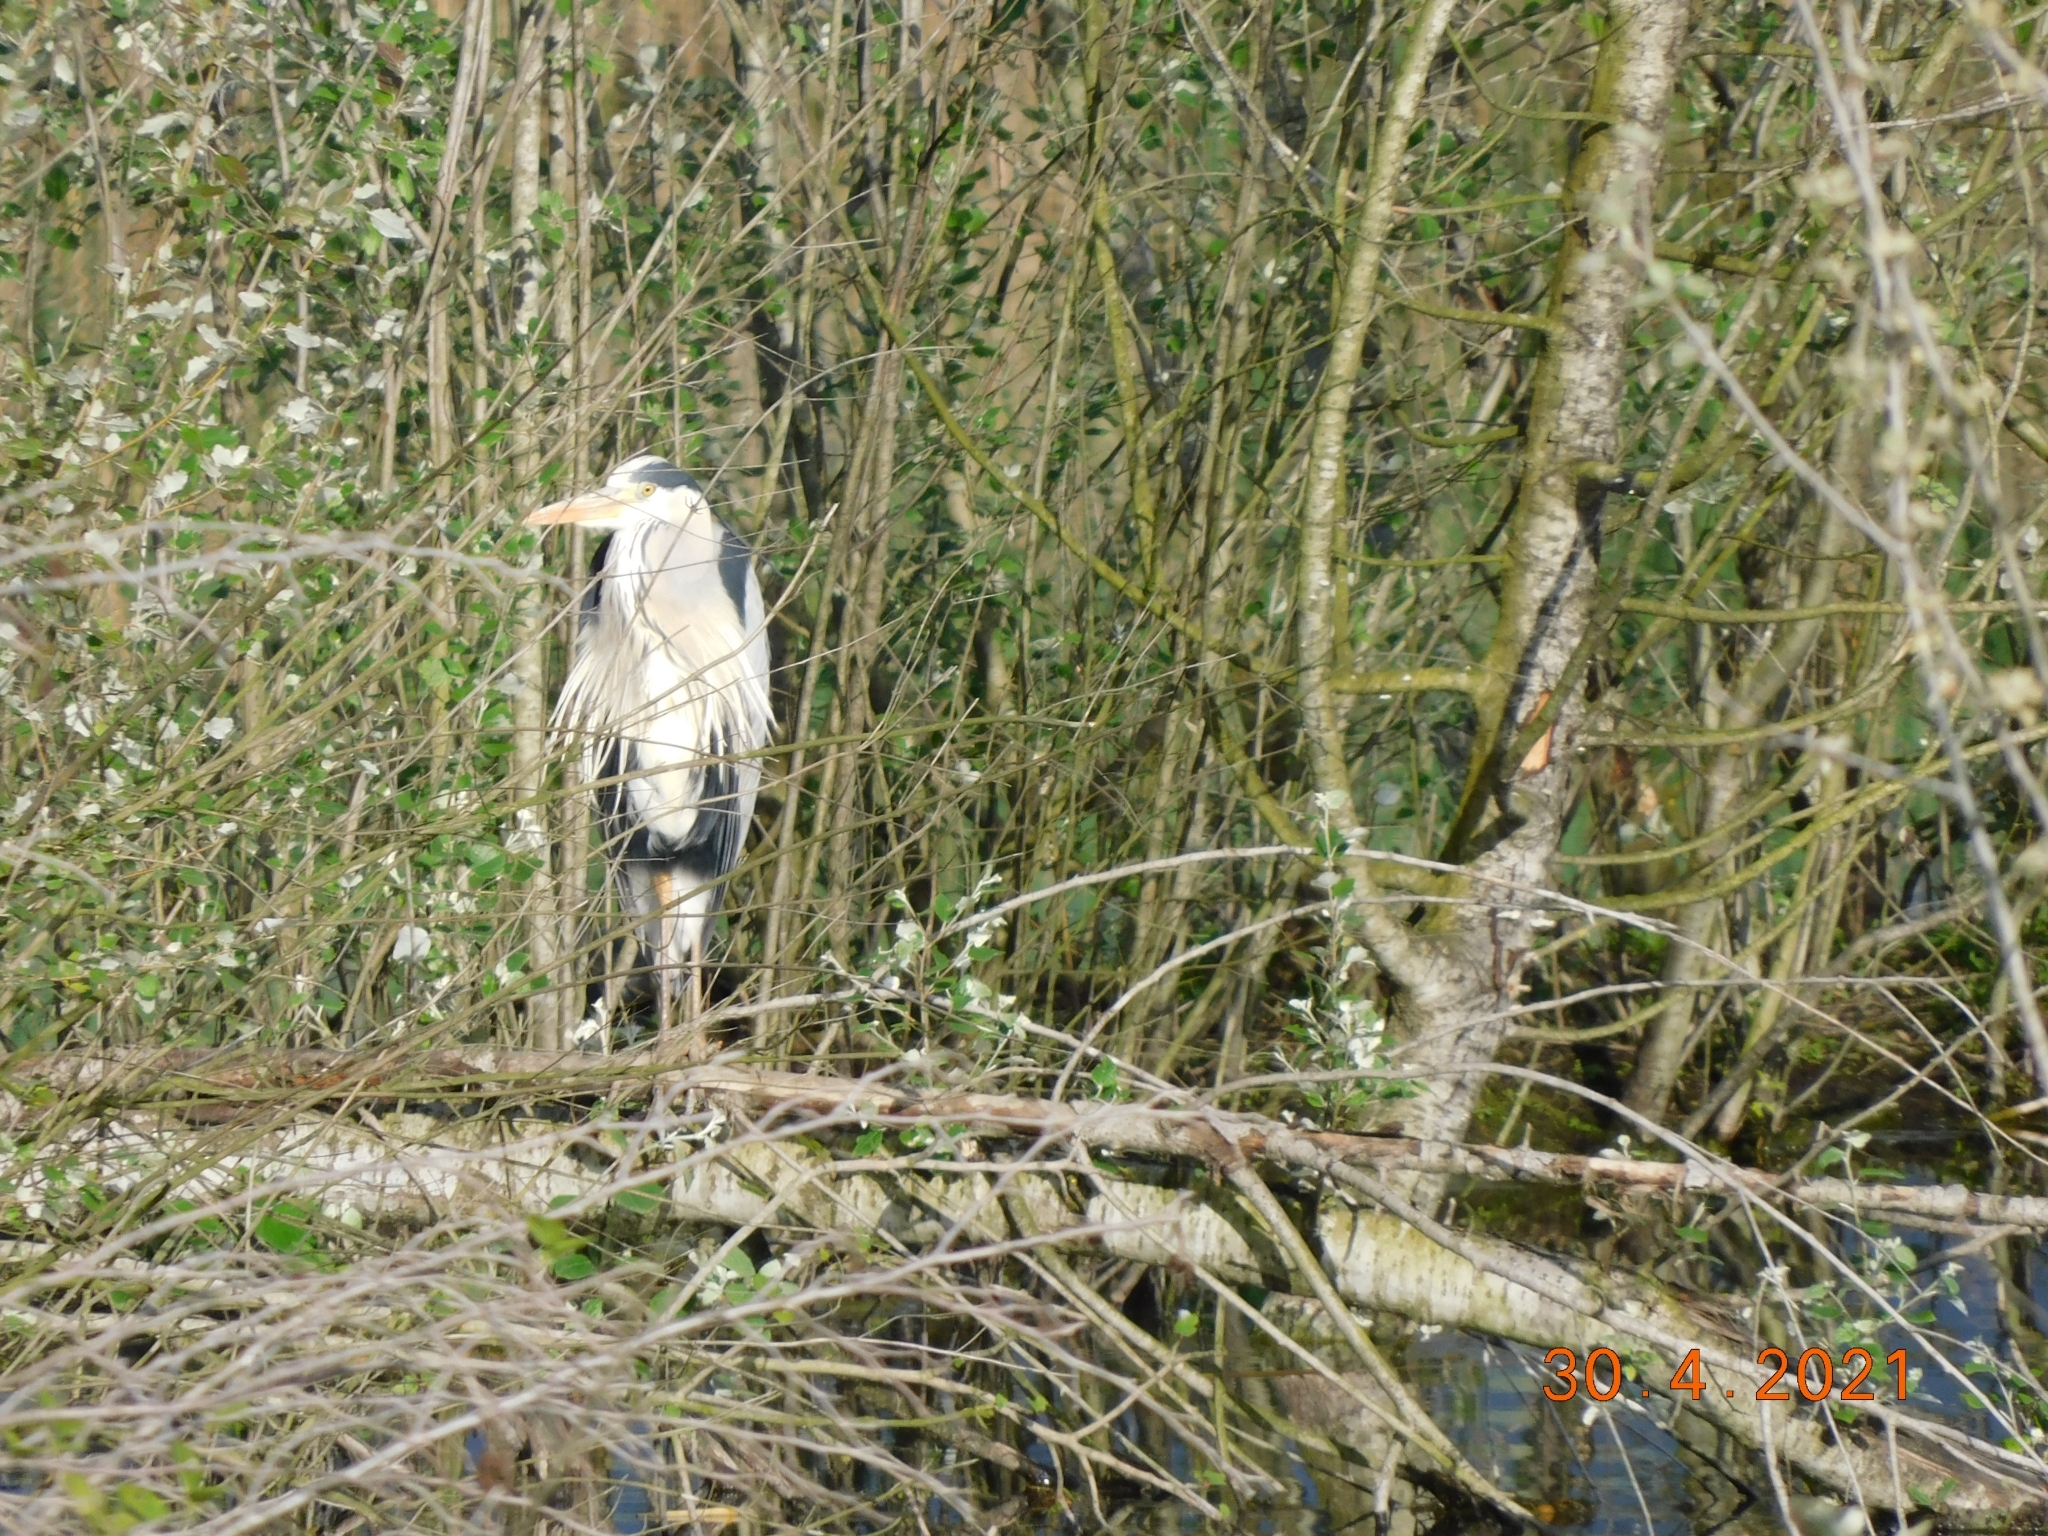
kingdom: Animalia
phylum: Chordata
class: Aves
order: Pelecaniformes
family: Ardeidae
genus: Ardea
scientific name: Ardea cinerea
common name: Grey heron
